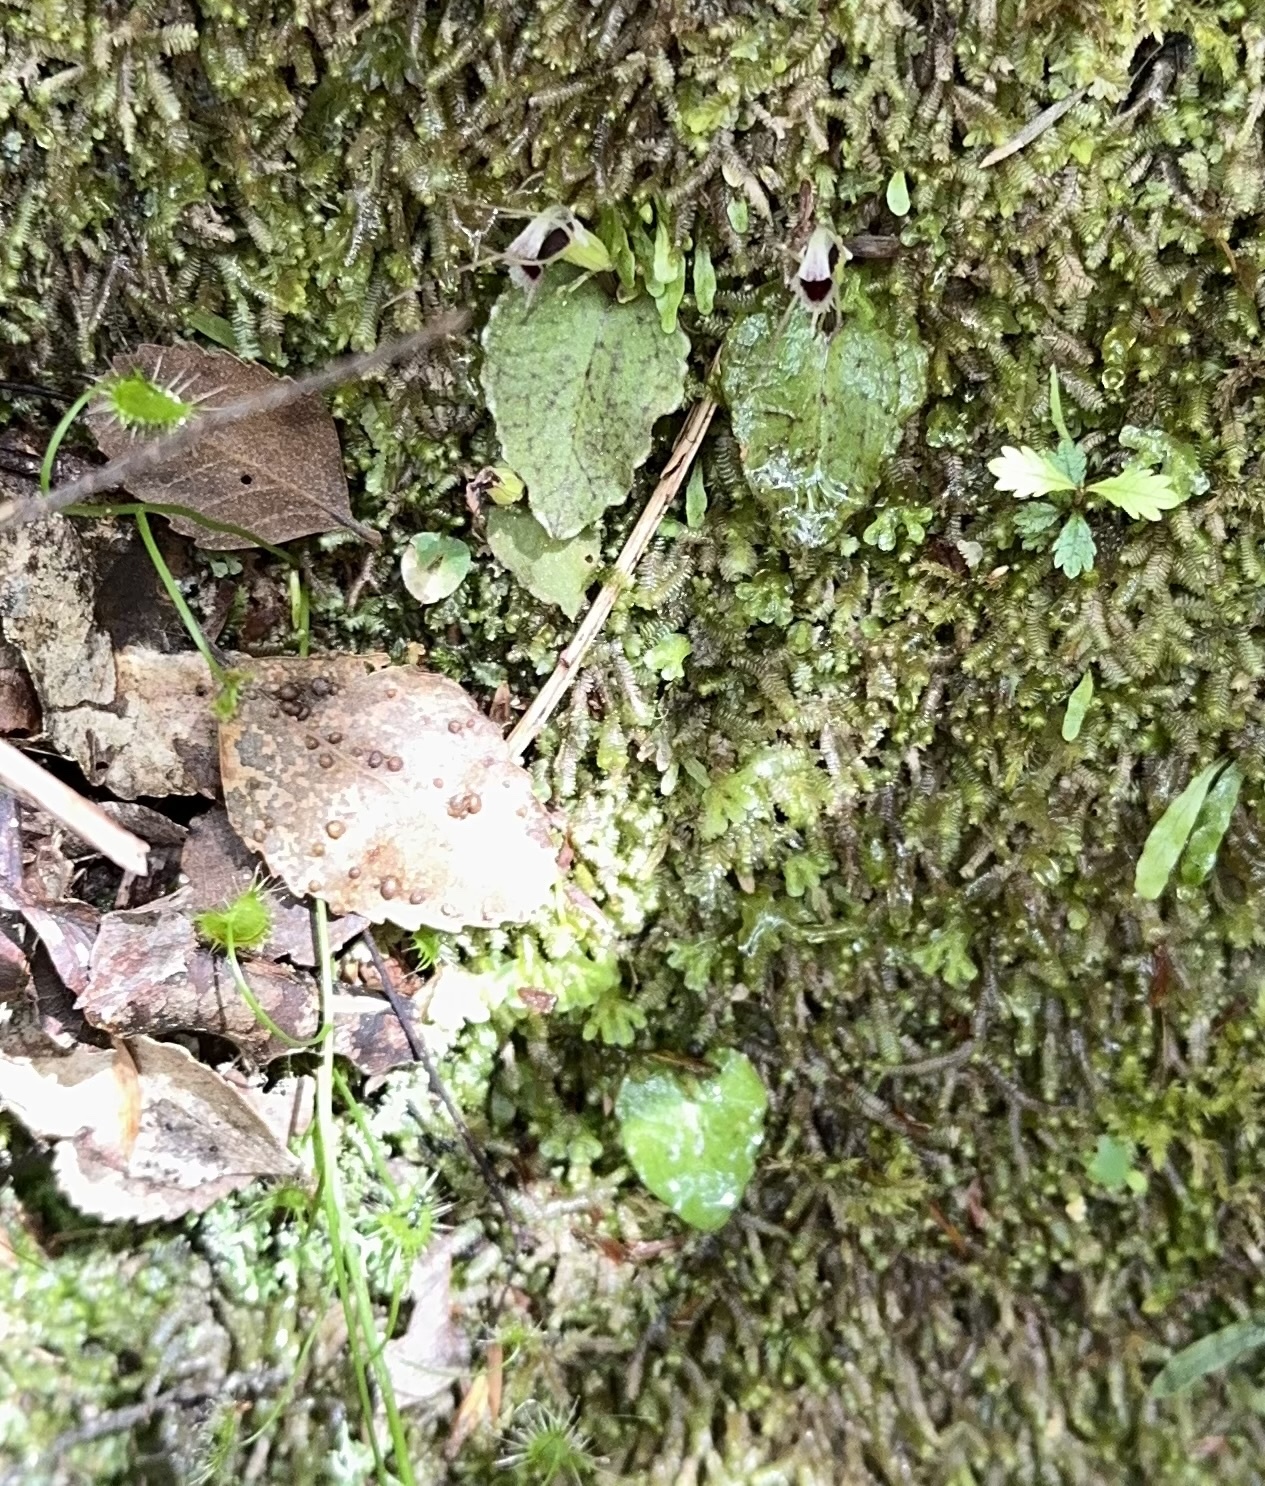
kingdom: Plantae
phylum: Tracheophyta
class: Liliopsida
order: Asparagales
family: Orchidaceae
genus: Corybas
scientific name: Corybas oblongus
